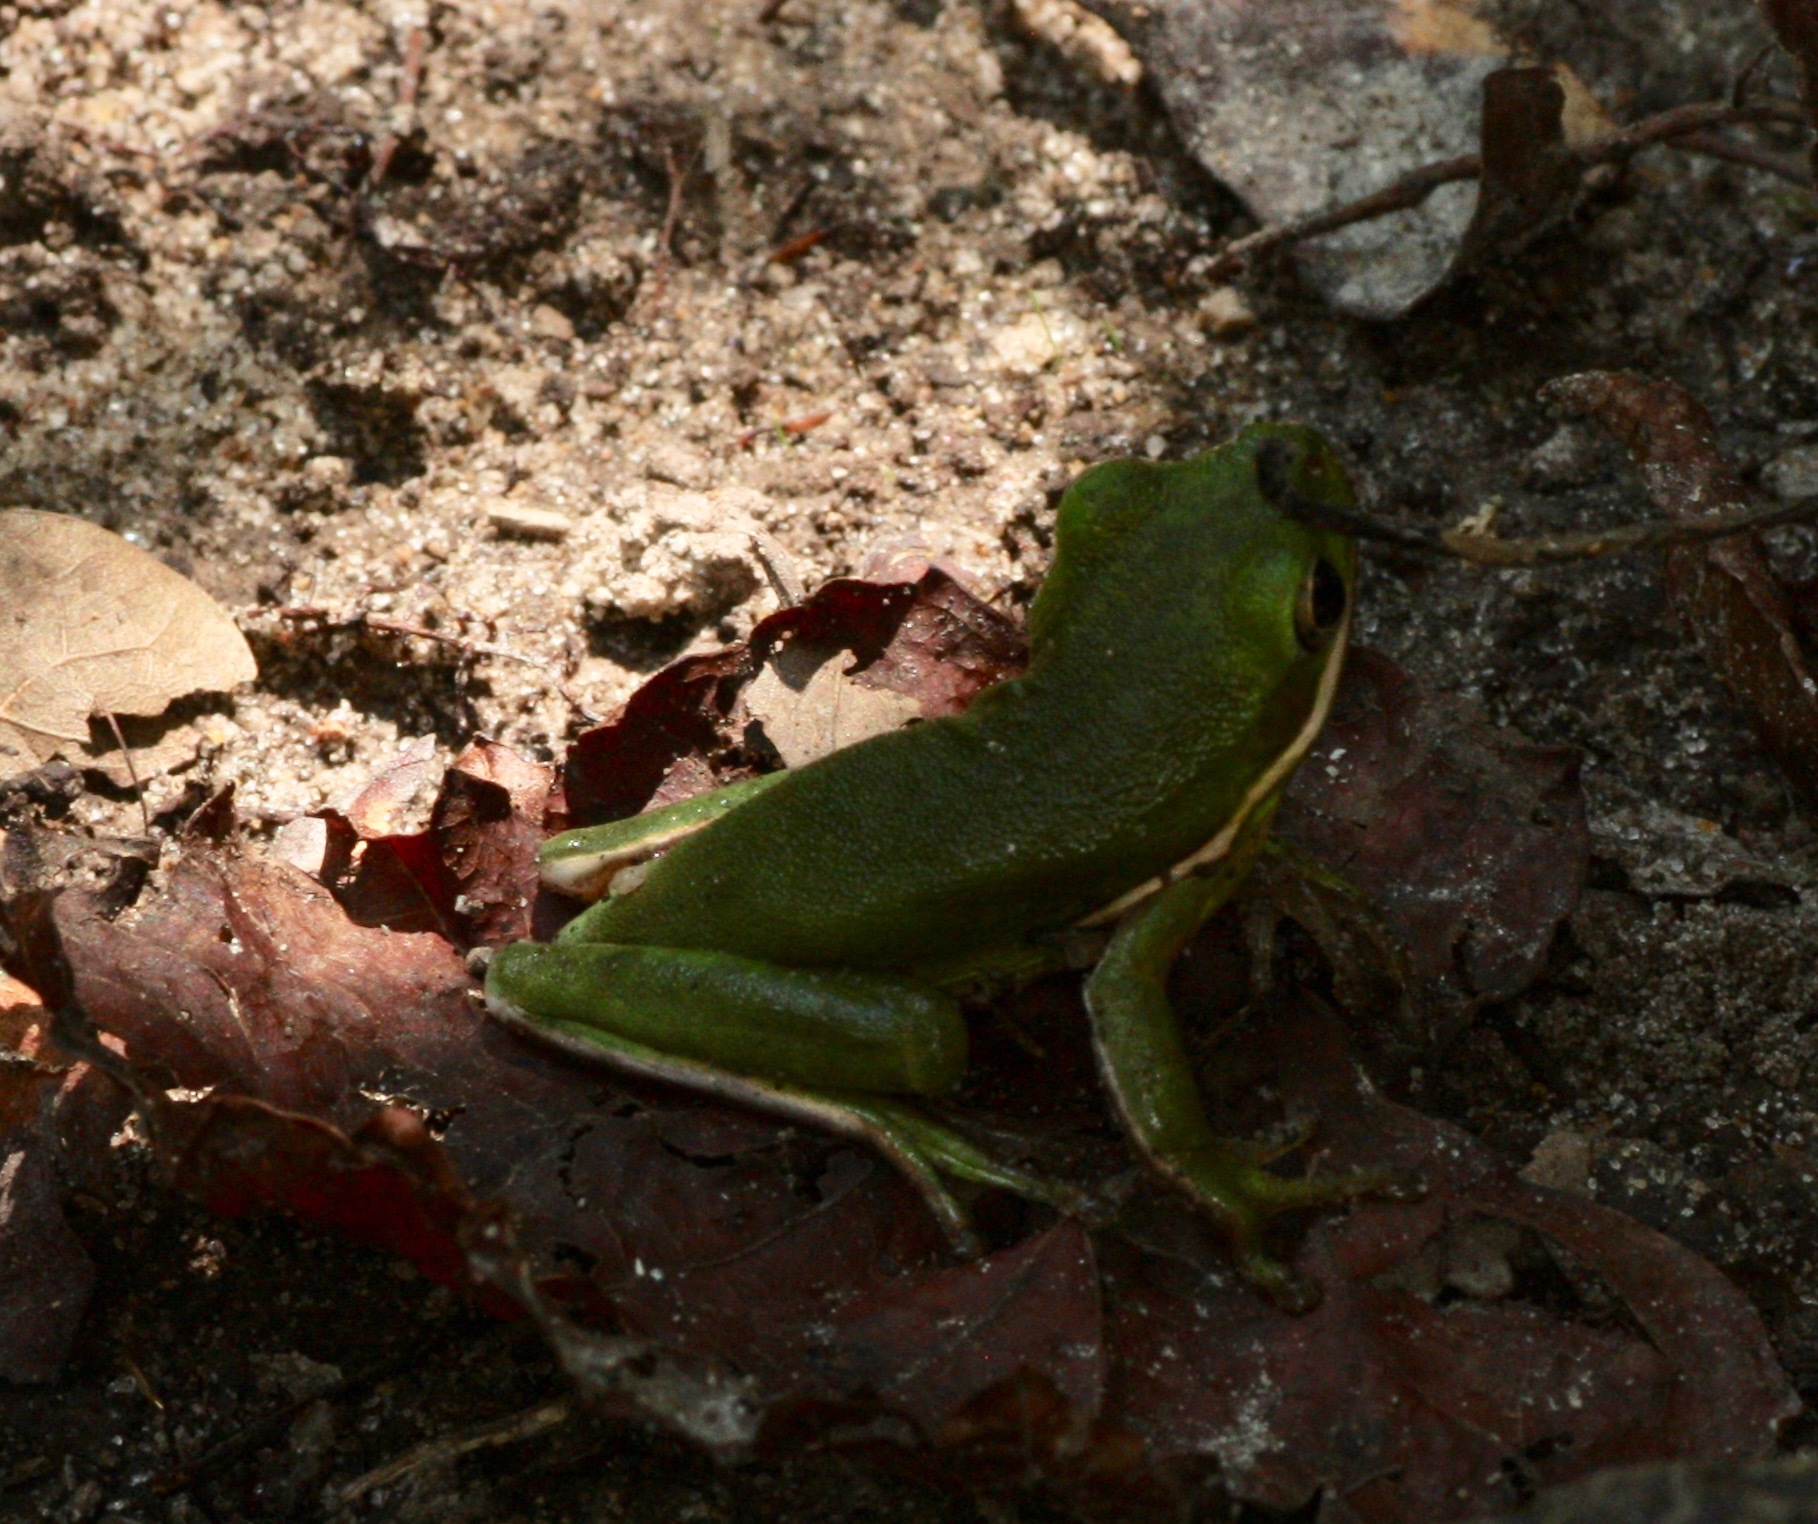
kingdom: Animalia
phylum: Chordata
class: Amphibia
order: Anura
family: Hylidae
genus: Dryophytes
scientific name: Dryophytes cinereus
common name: Green treefrog
